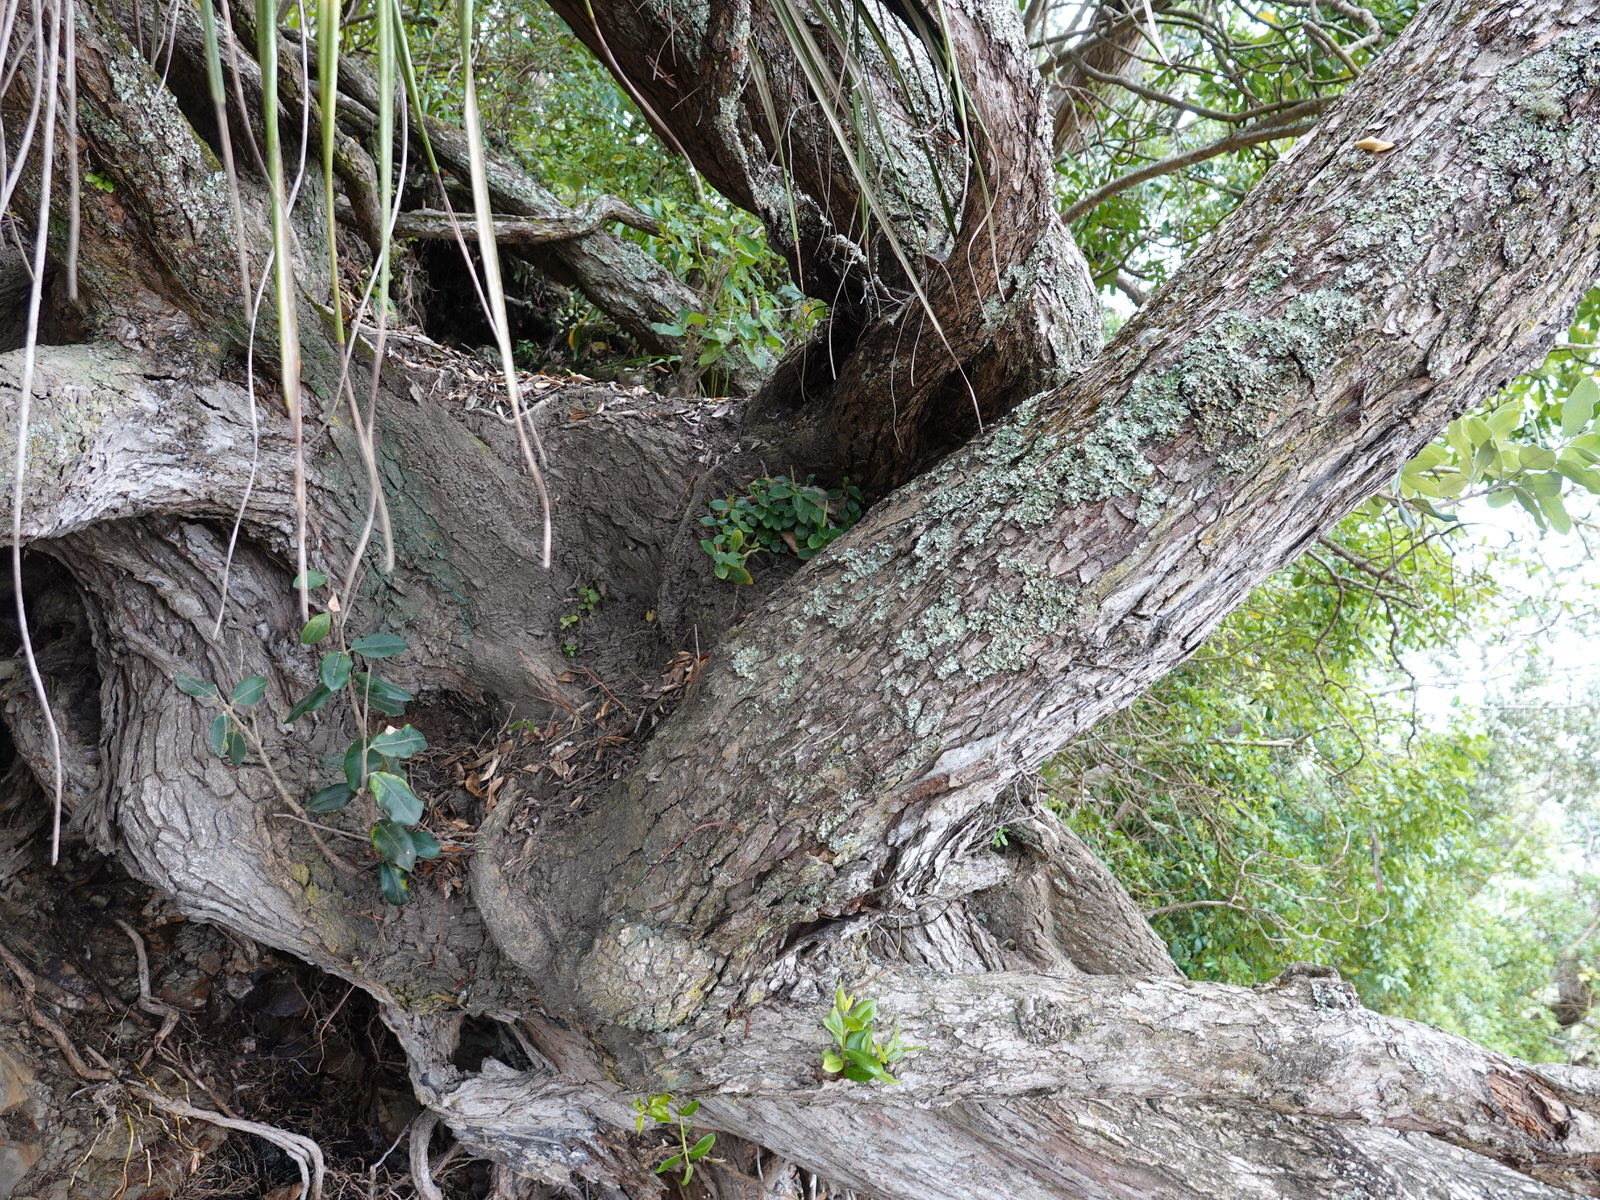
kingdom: Plantae
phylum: Tracheophyta
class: Magnoliopsida
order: Piperales
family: Piperaceae
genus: Peperomia
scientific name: Peperomia urvilleana
